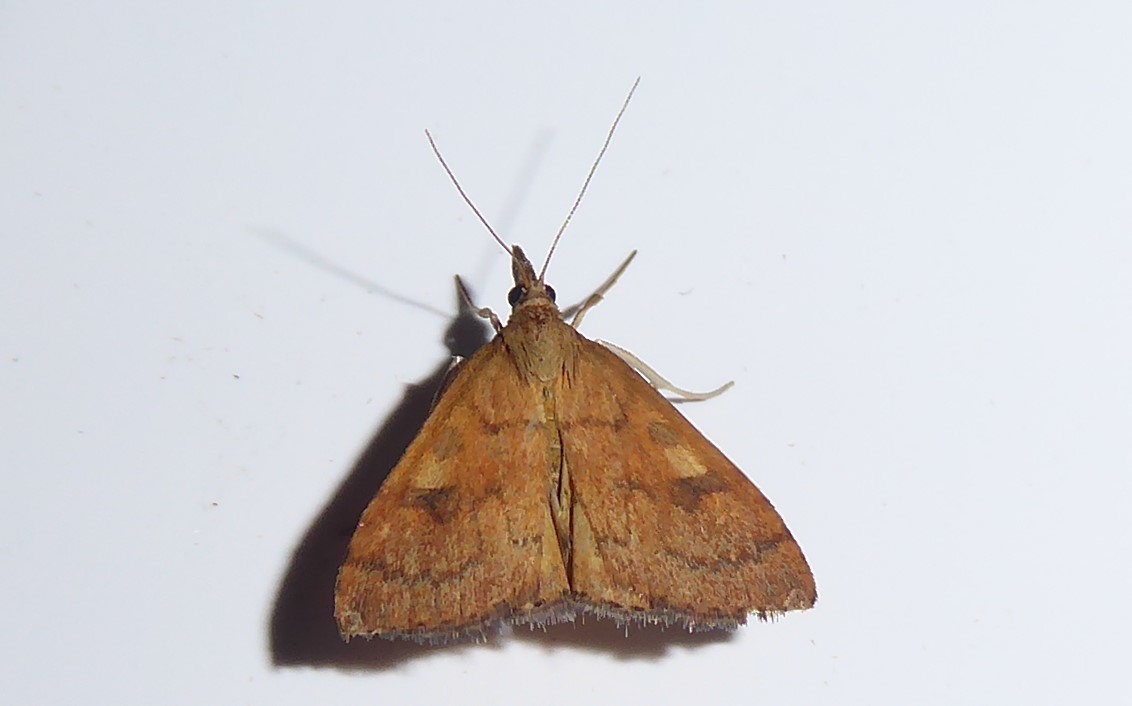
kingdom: Animalia
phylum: Arthropoda
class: Insecta
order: Lepidoptera
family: Crambidae
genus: Udea
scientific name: Udea Mnesictena flavidalis
